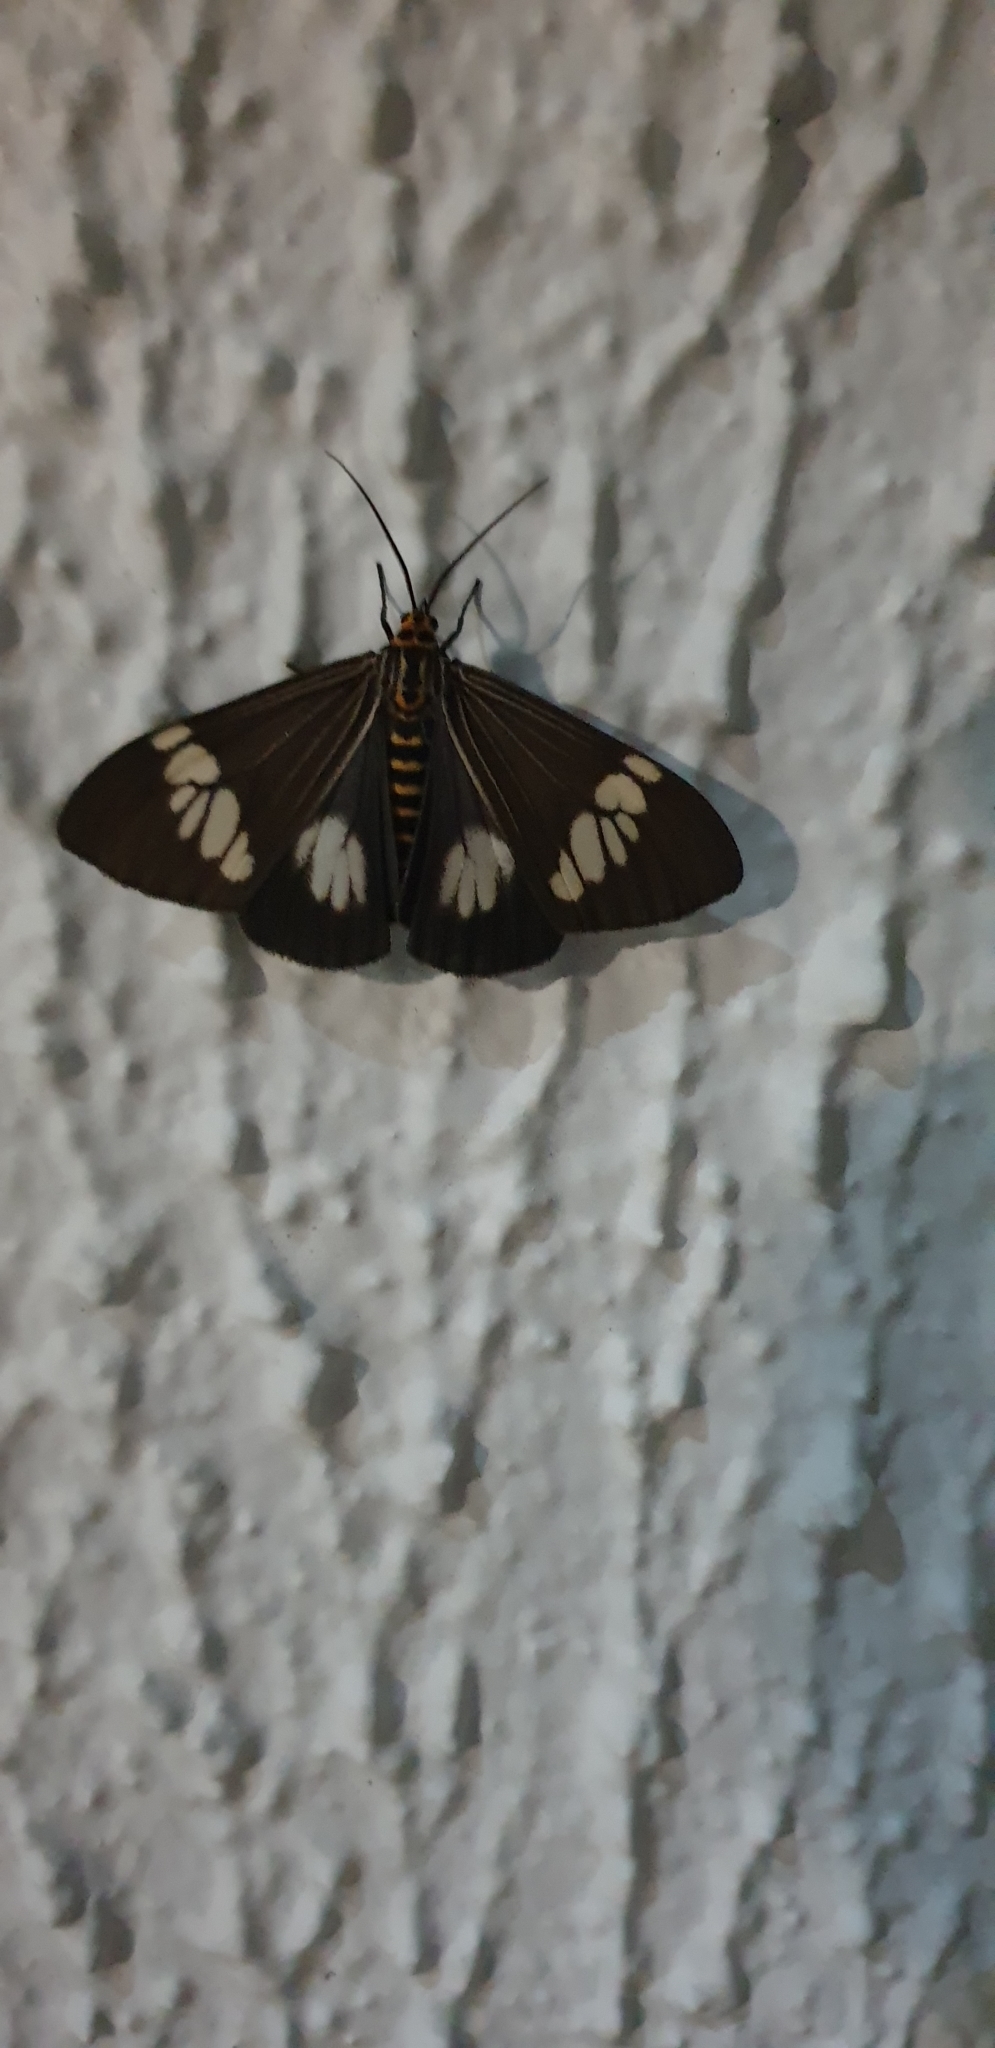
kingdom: Animalia
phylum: Arthropoda
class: Insecta
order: Lepidoptera
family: Erebidae
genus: Nyctemera
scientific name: Nyctemera baulus
